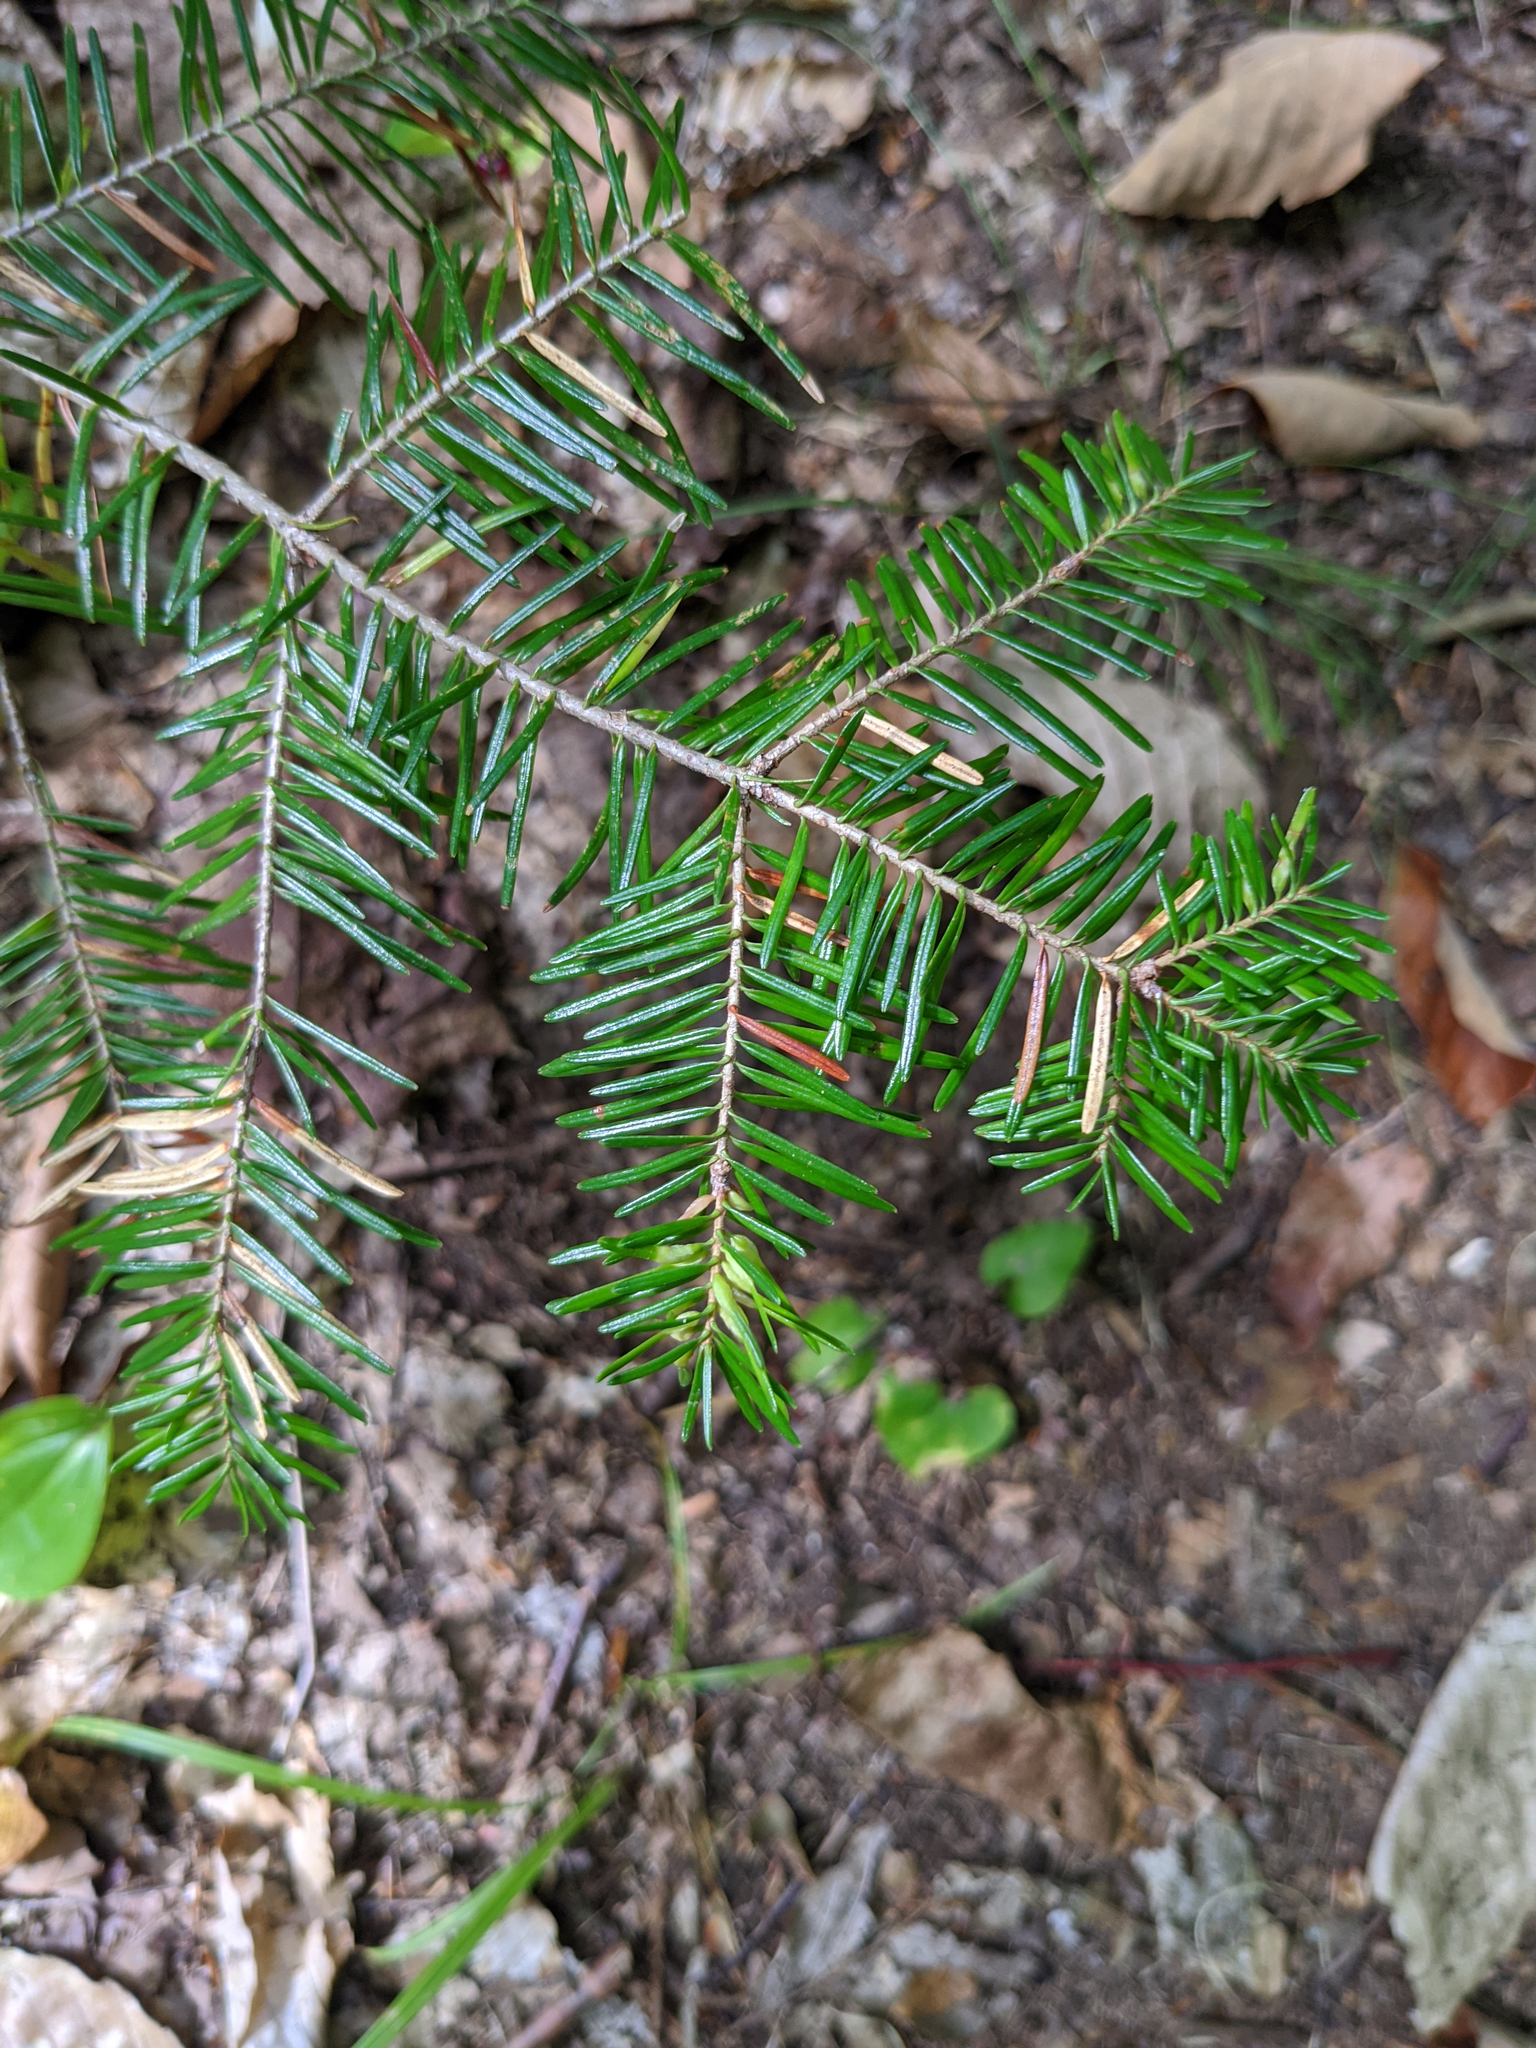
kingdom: Plantae
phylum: Tracheophyta
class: Pinopsida
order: Pinales
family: Pinaceae
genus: Abies
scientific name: Abies balsamea
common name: Balsam fir
